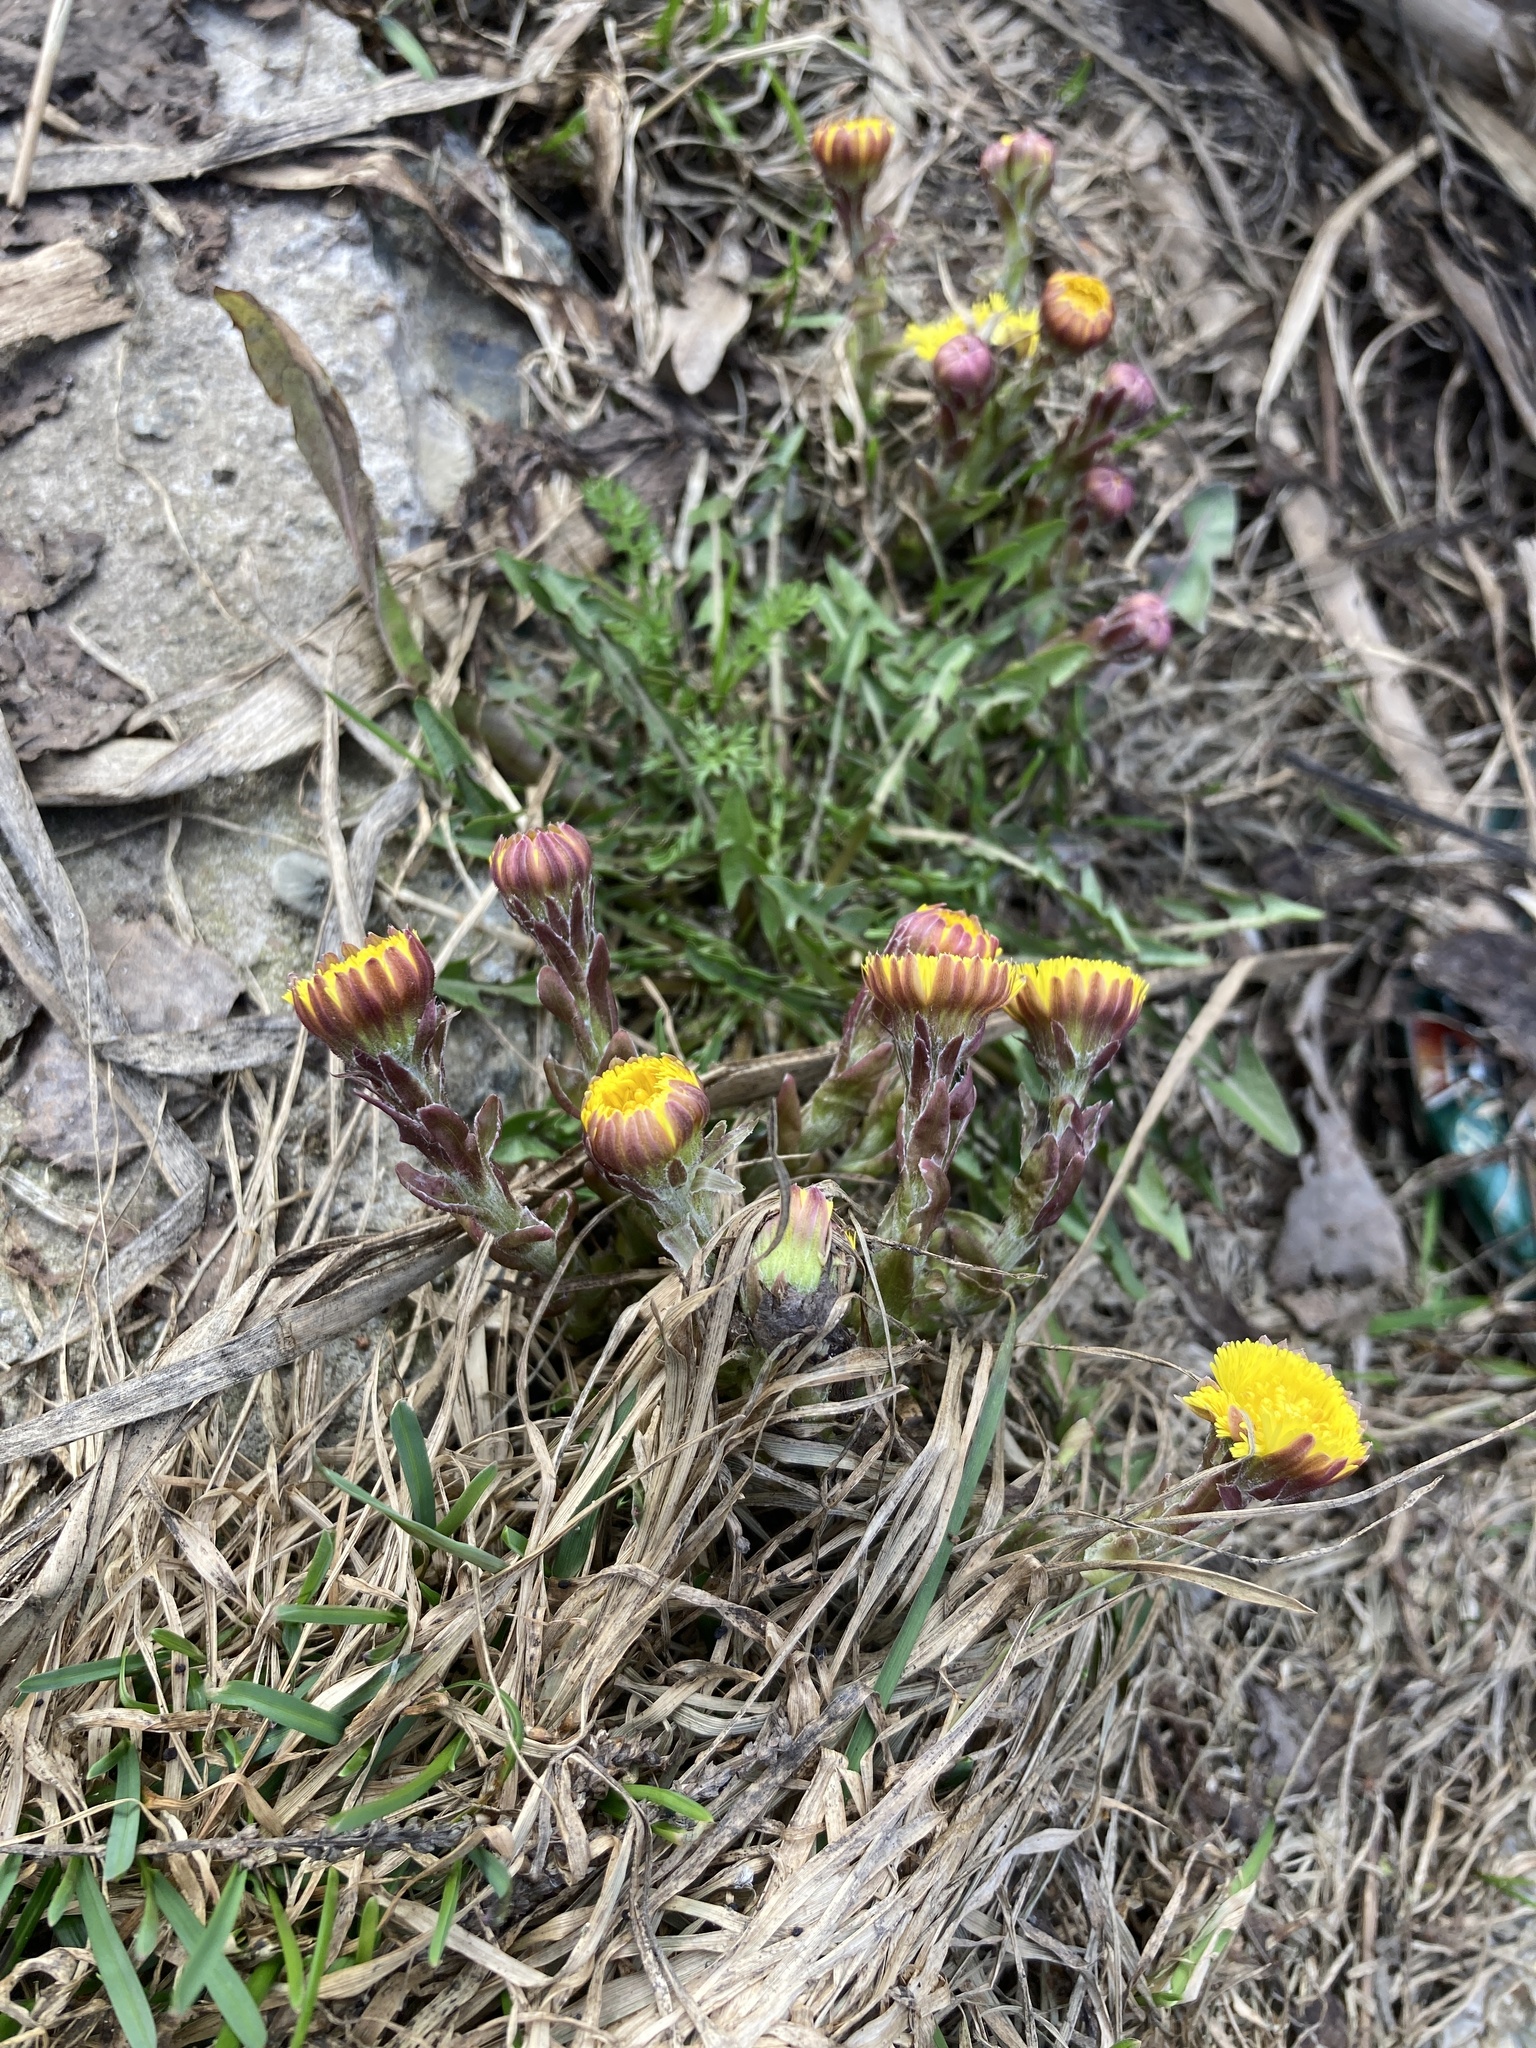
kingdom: Plantae
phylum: Tracheophyta
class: Magnoliopsida
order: Asterales
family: Asteraceae
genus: Tussilago
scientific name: Tussilago farfara
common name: Coltsfoot
